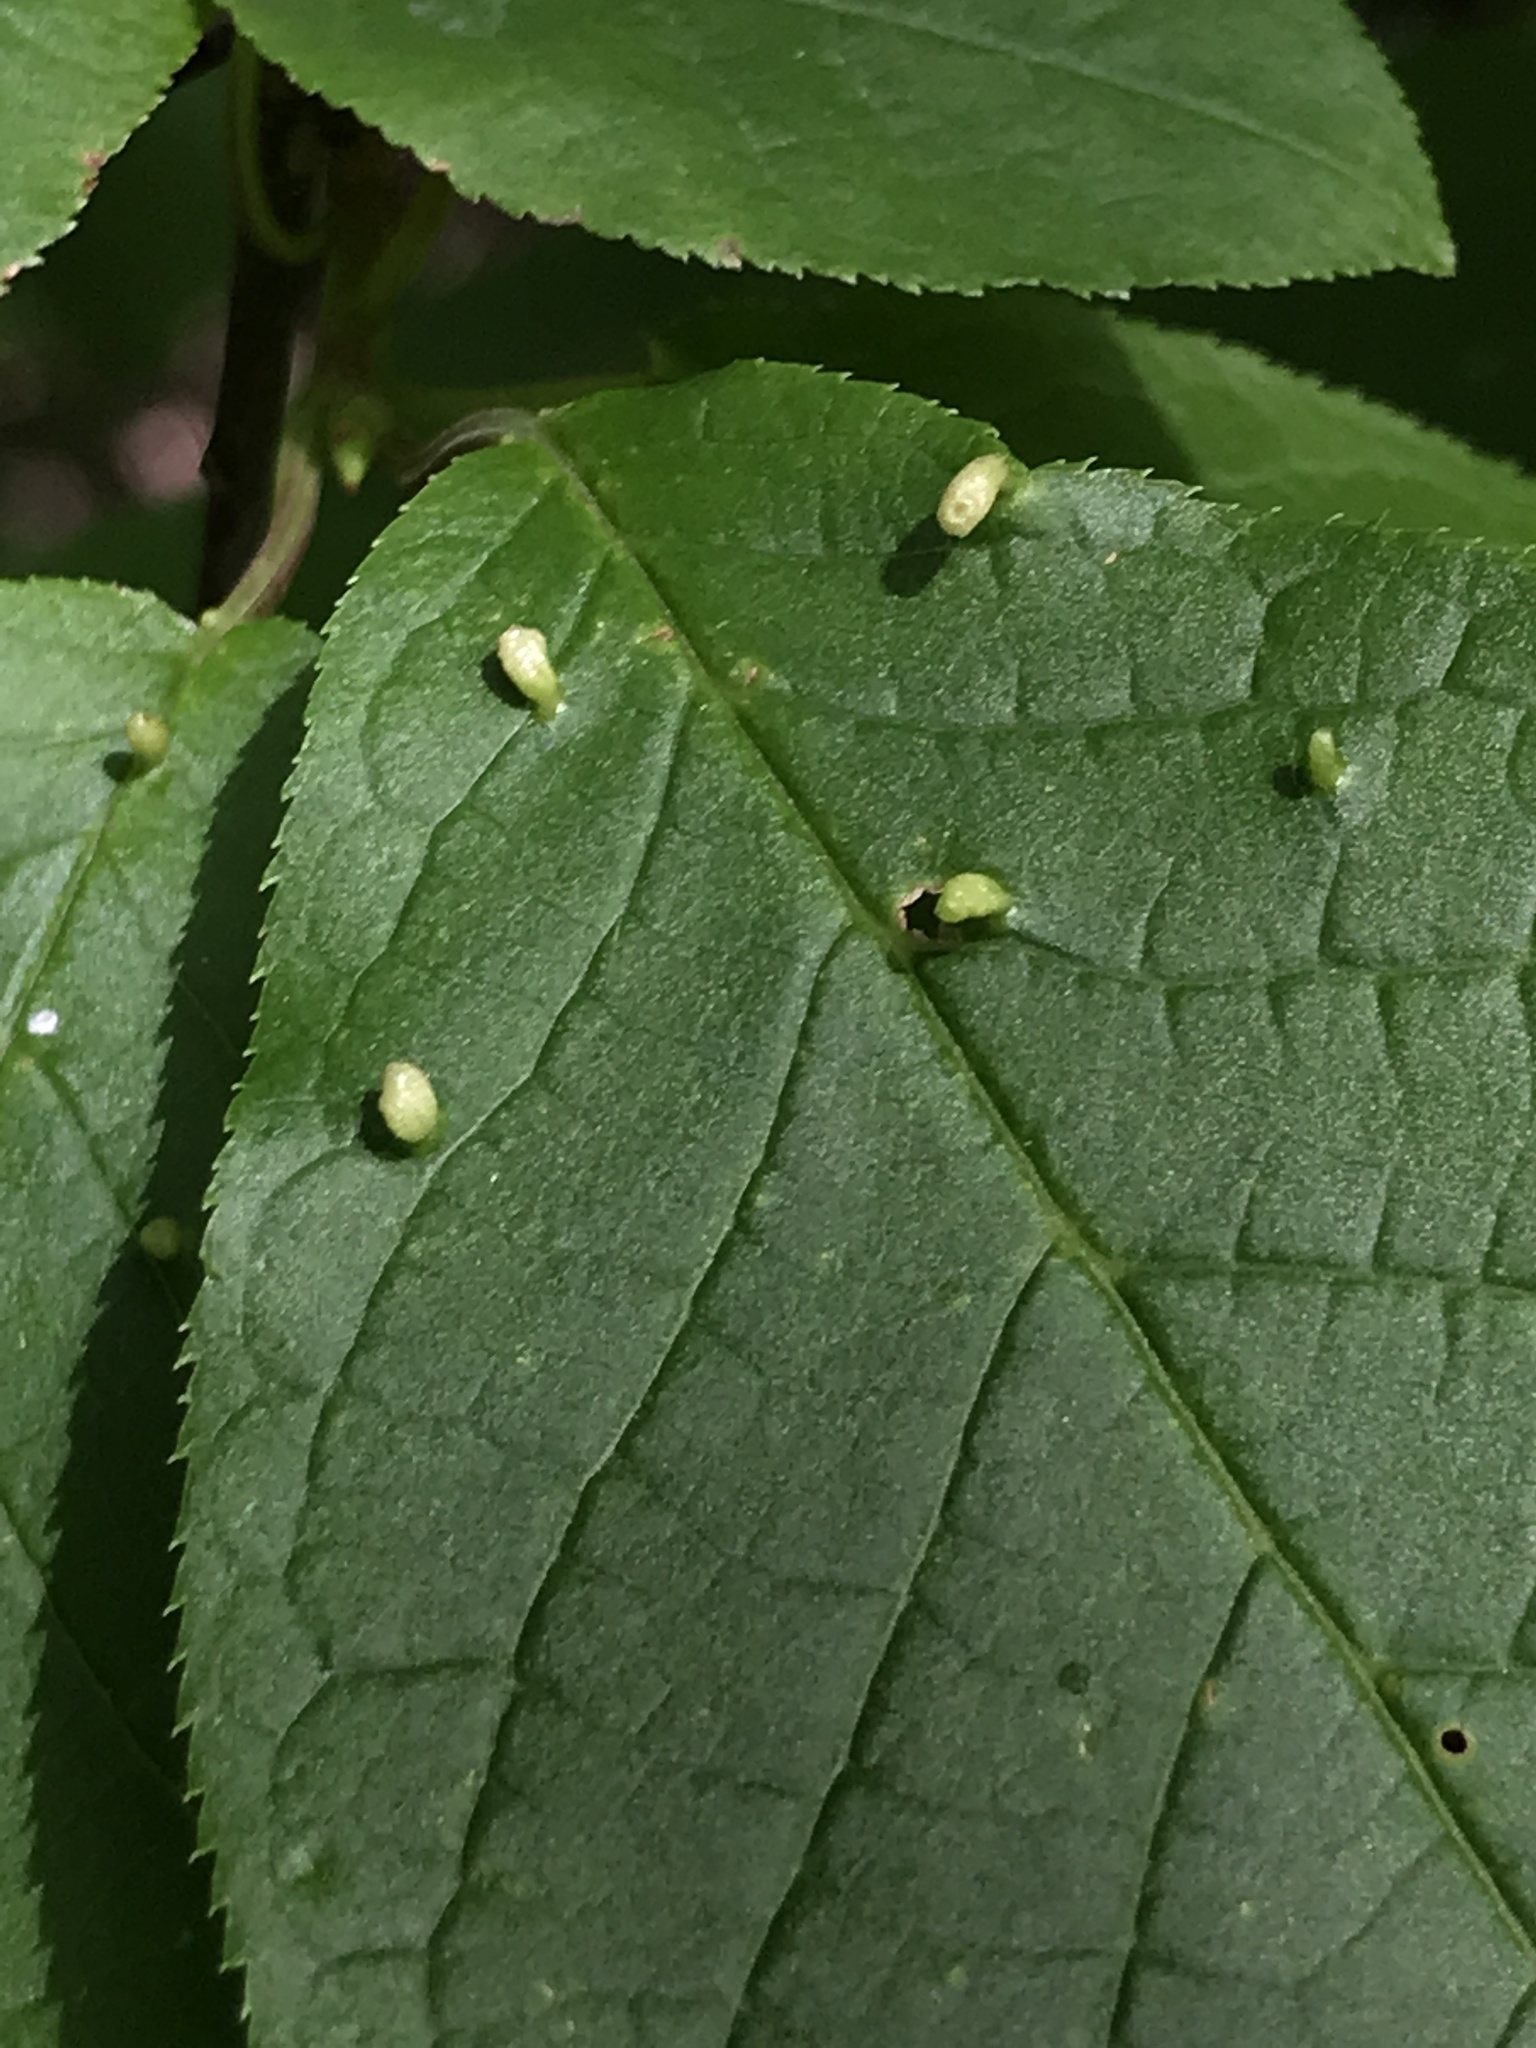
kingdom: Animalia
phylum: Arthropoda
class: Arachnida
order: Trombidiformes
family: Eriophyidae
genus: Phyllocoptes
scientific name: Phyllocoptes eupadi
